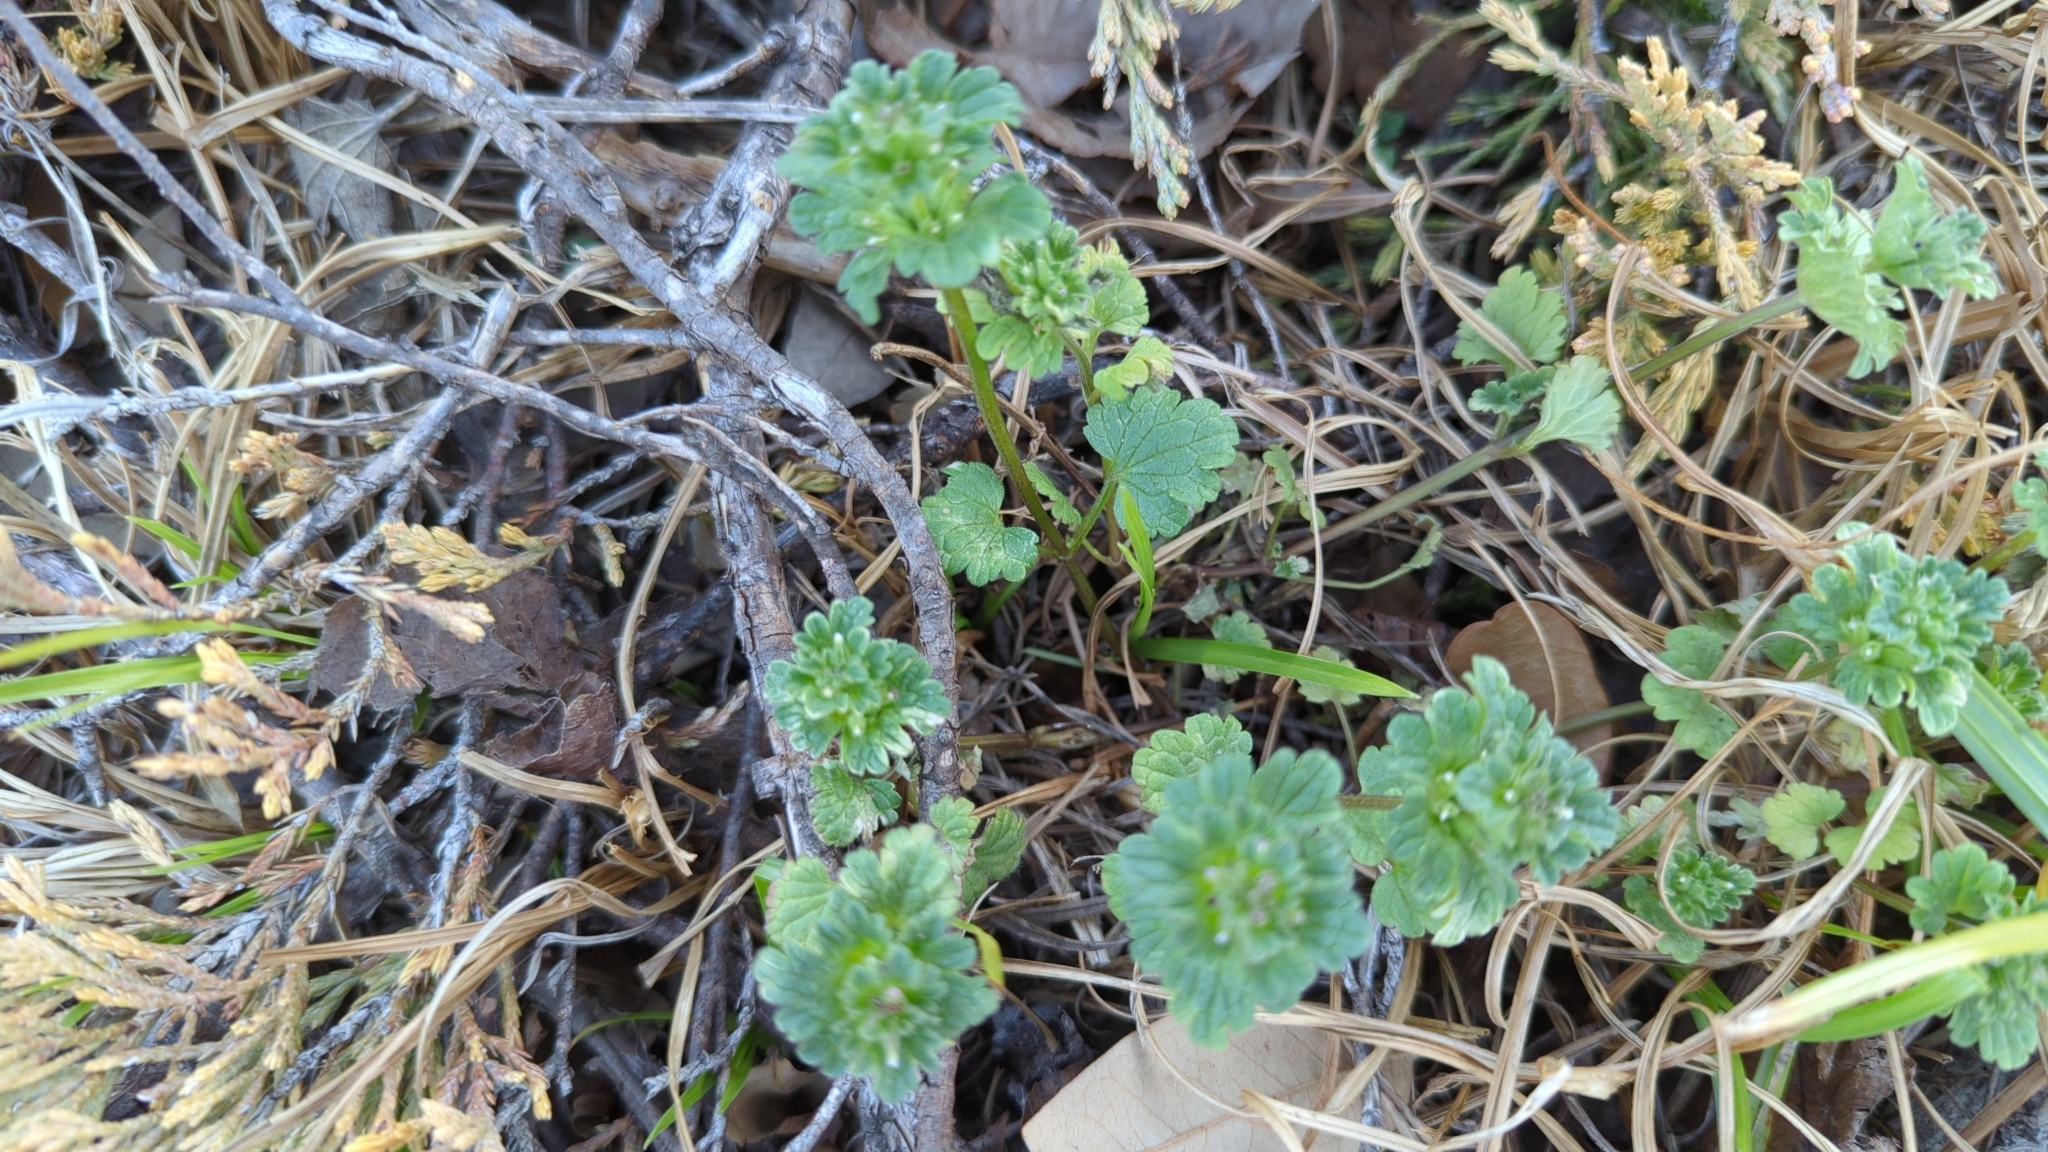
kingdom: Plantae
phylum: Tracheophyta
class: Magnoliopsida
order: Lamiales
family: Lamiaceae
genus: Lamium
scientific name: Lamium amplexicaule
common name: Henbit dead-nettle
